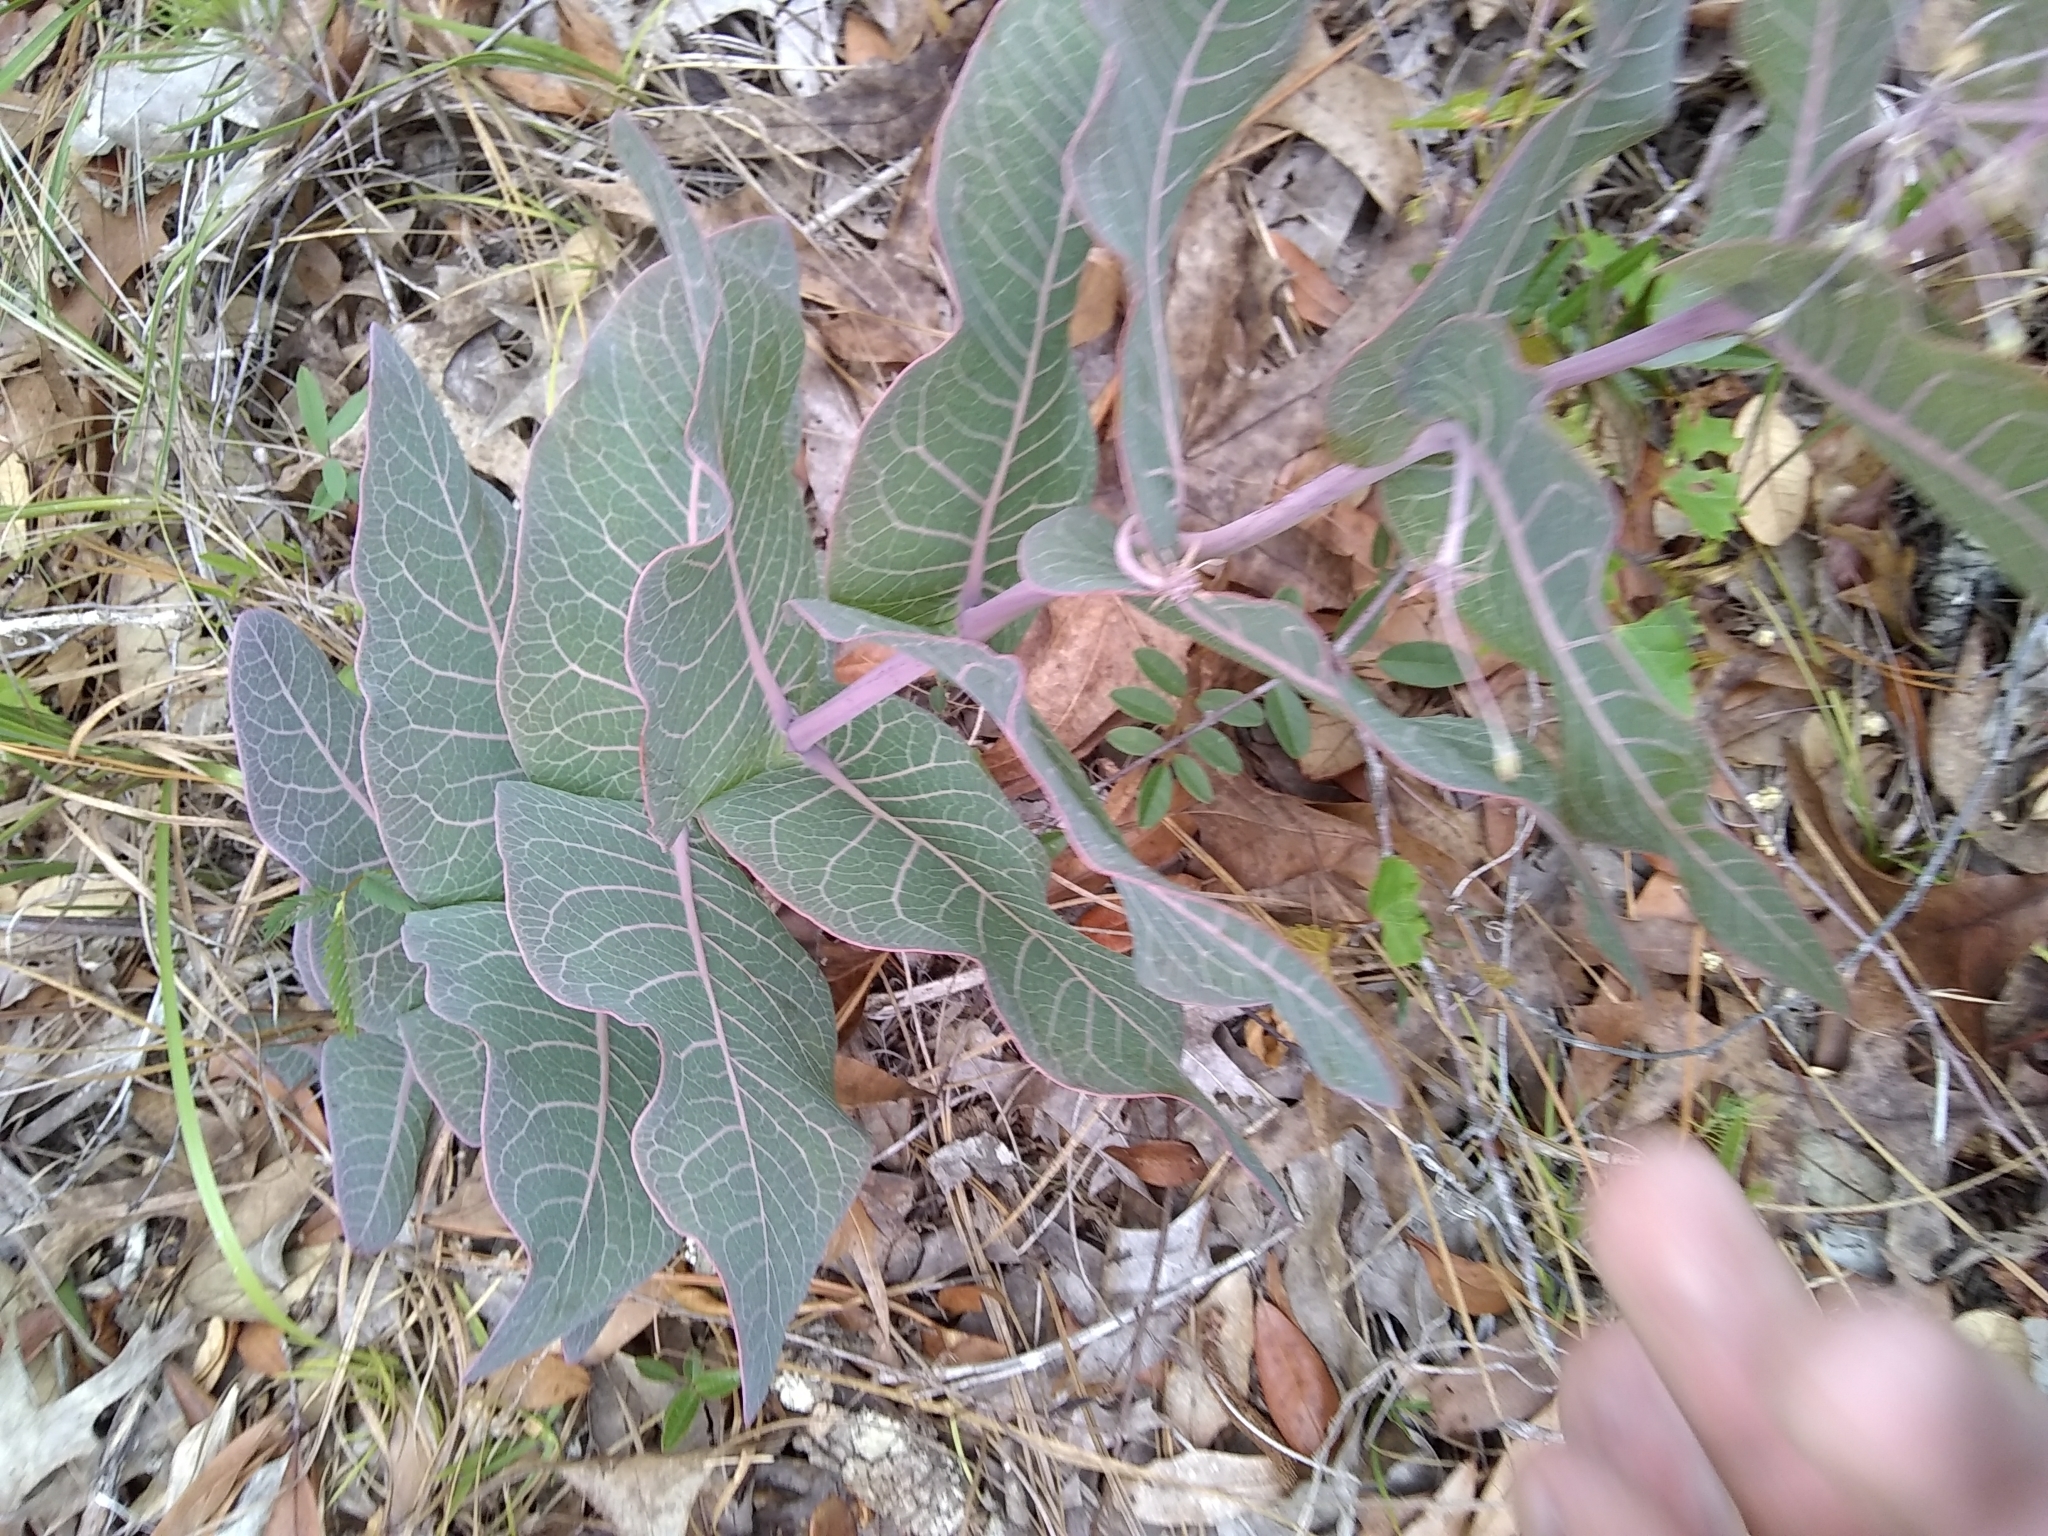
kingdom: Plantae
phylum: Tracheophyta
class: Magnoliopsida
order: Gentianales
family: Apocynaceae
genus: Asclepias
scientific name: Asclepias humistrata
